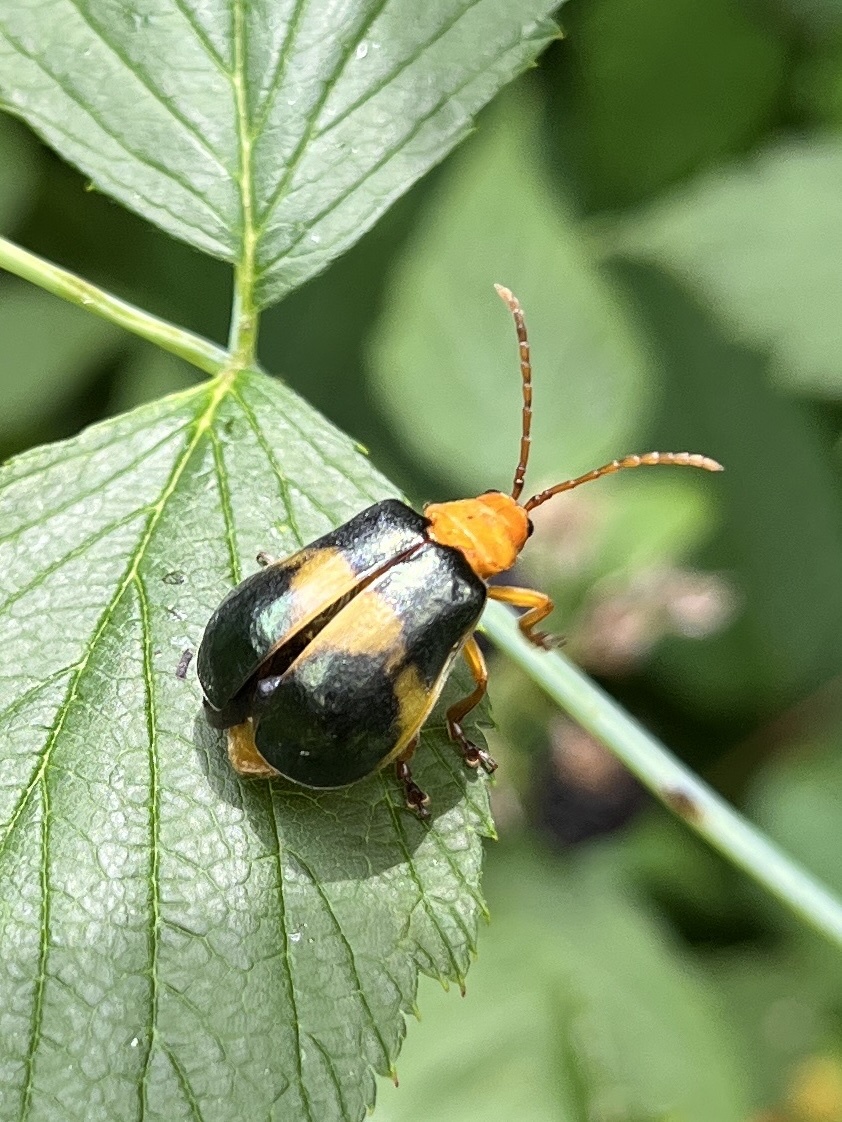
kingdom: Animalia
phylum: Arthropoda
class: Insecta
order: Coleoptera
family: Chrysomelidae
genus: Monocesta
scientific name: Monocesta coryli
